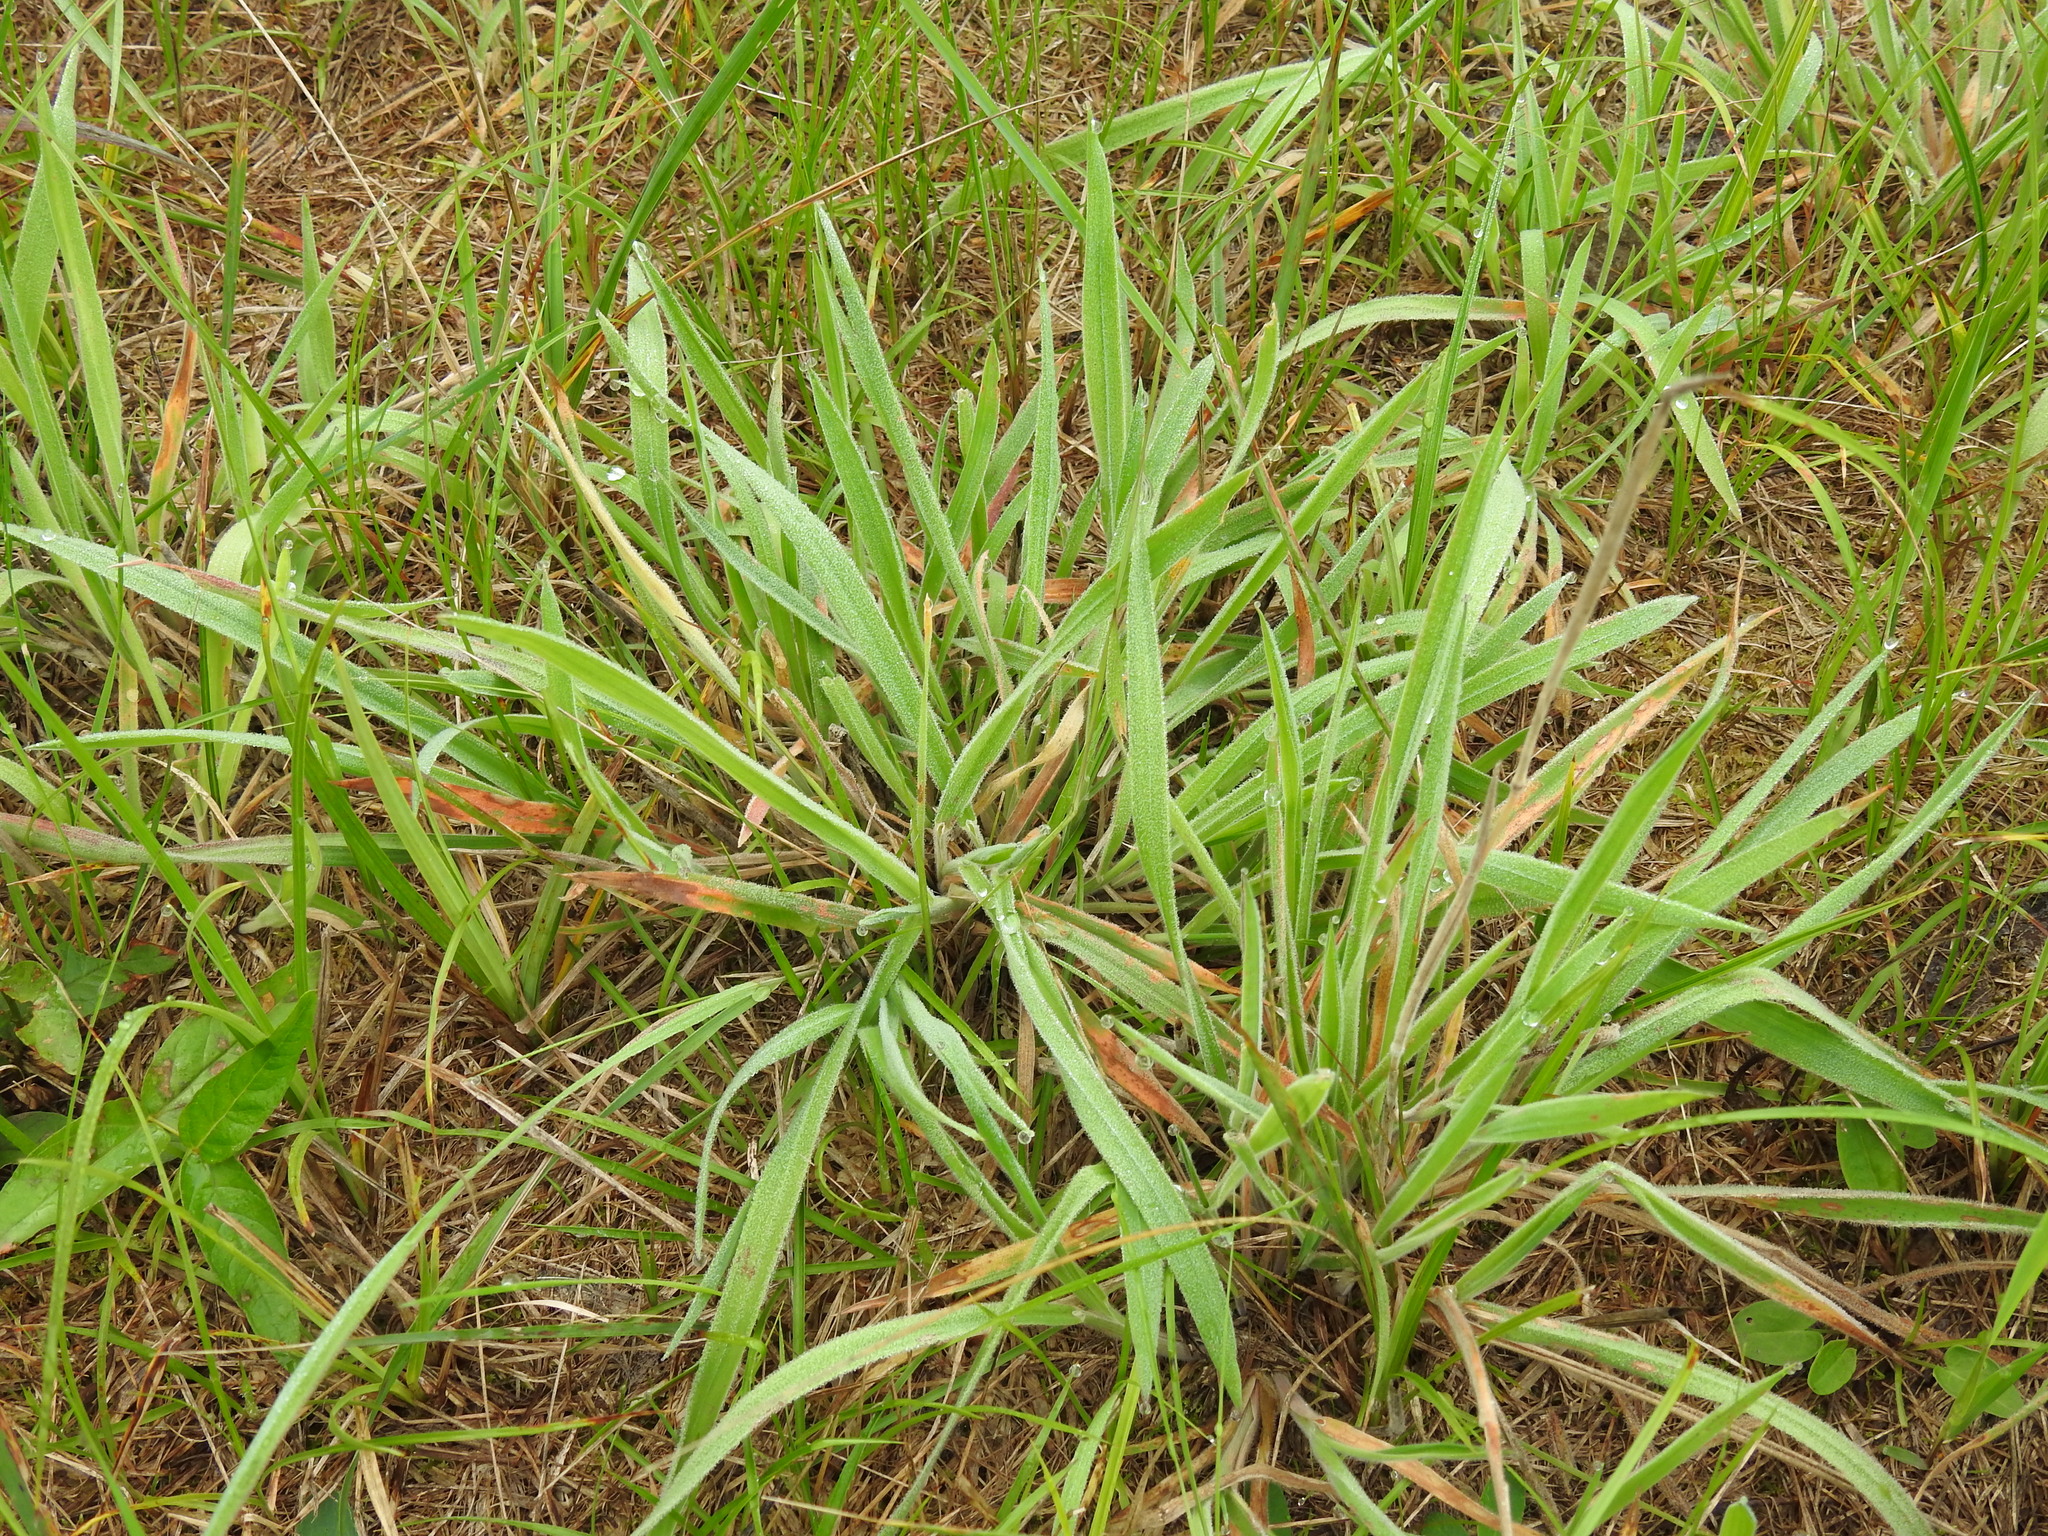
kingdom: Plantae
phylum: Tracheophyta
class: Liliopsida
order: Poales
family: Poaceae
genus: Holcus
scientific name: Holcus lanatus
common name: Yorkshire-fog
